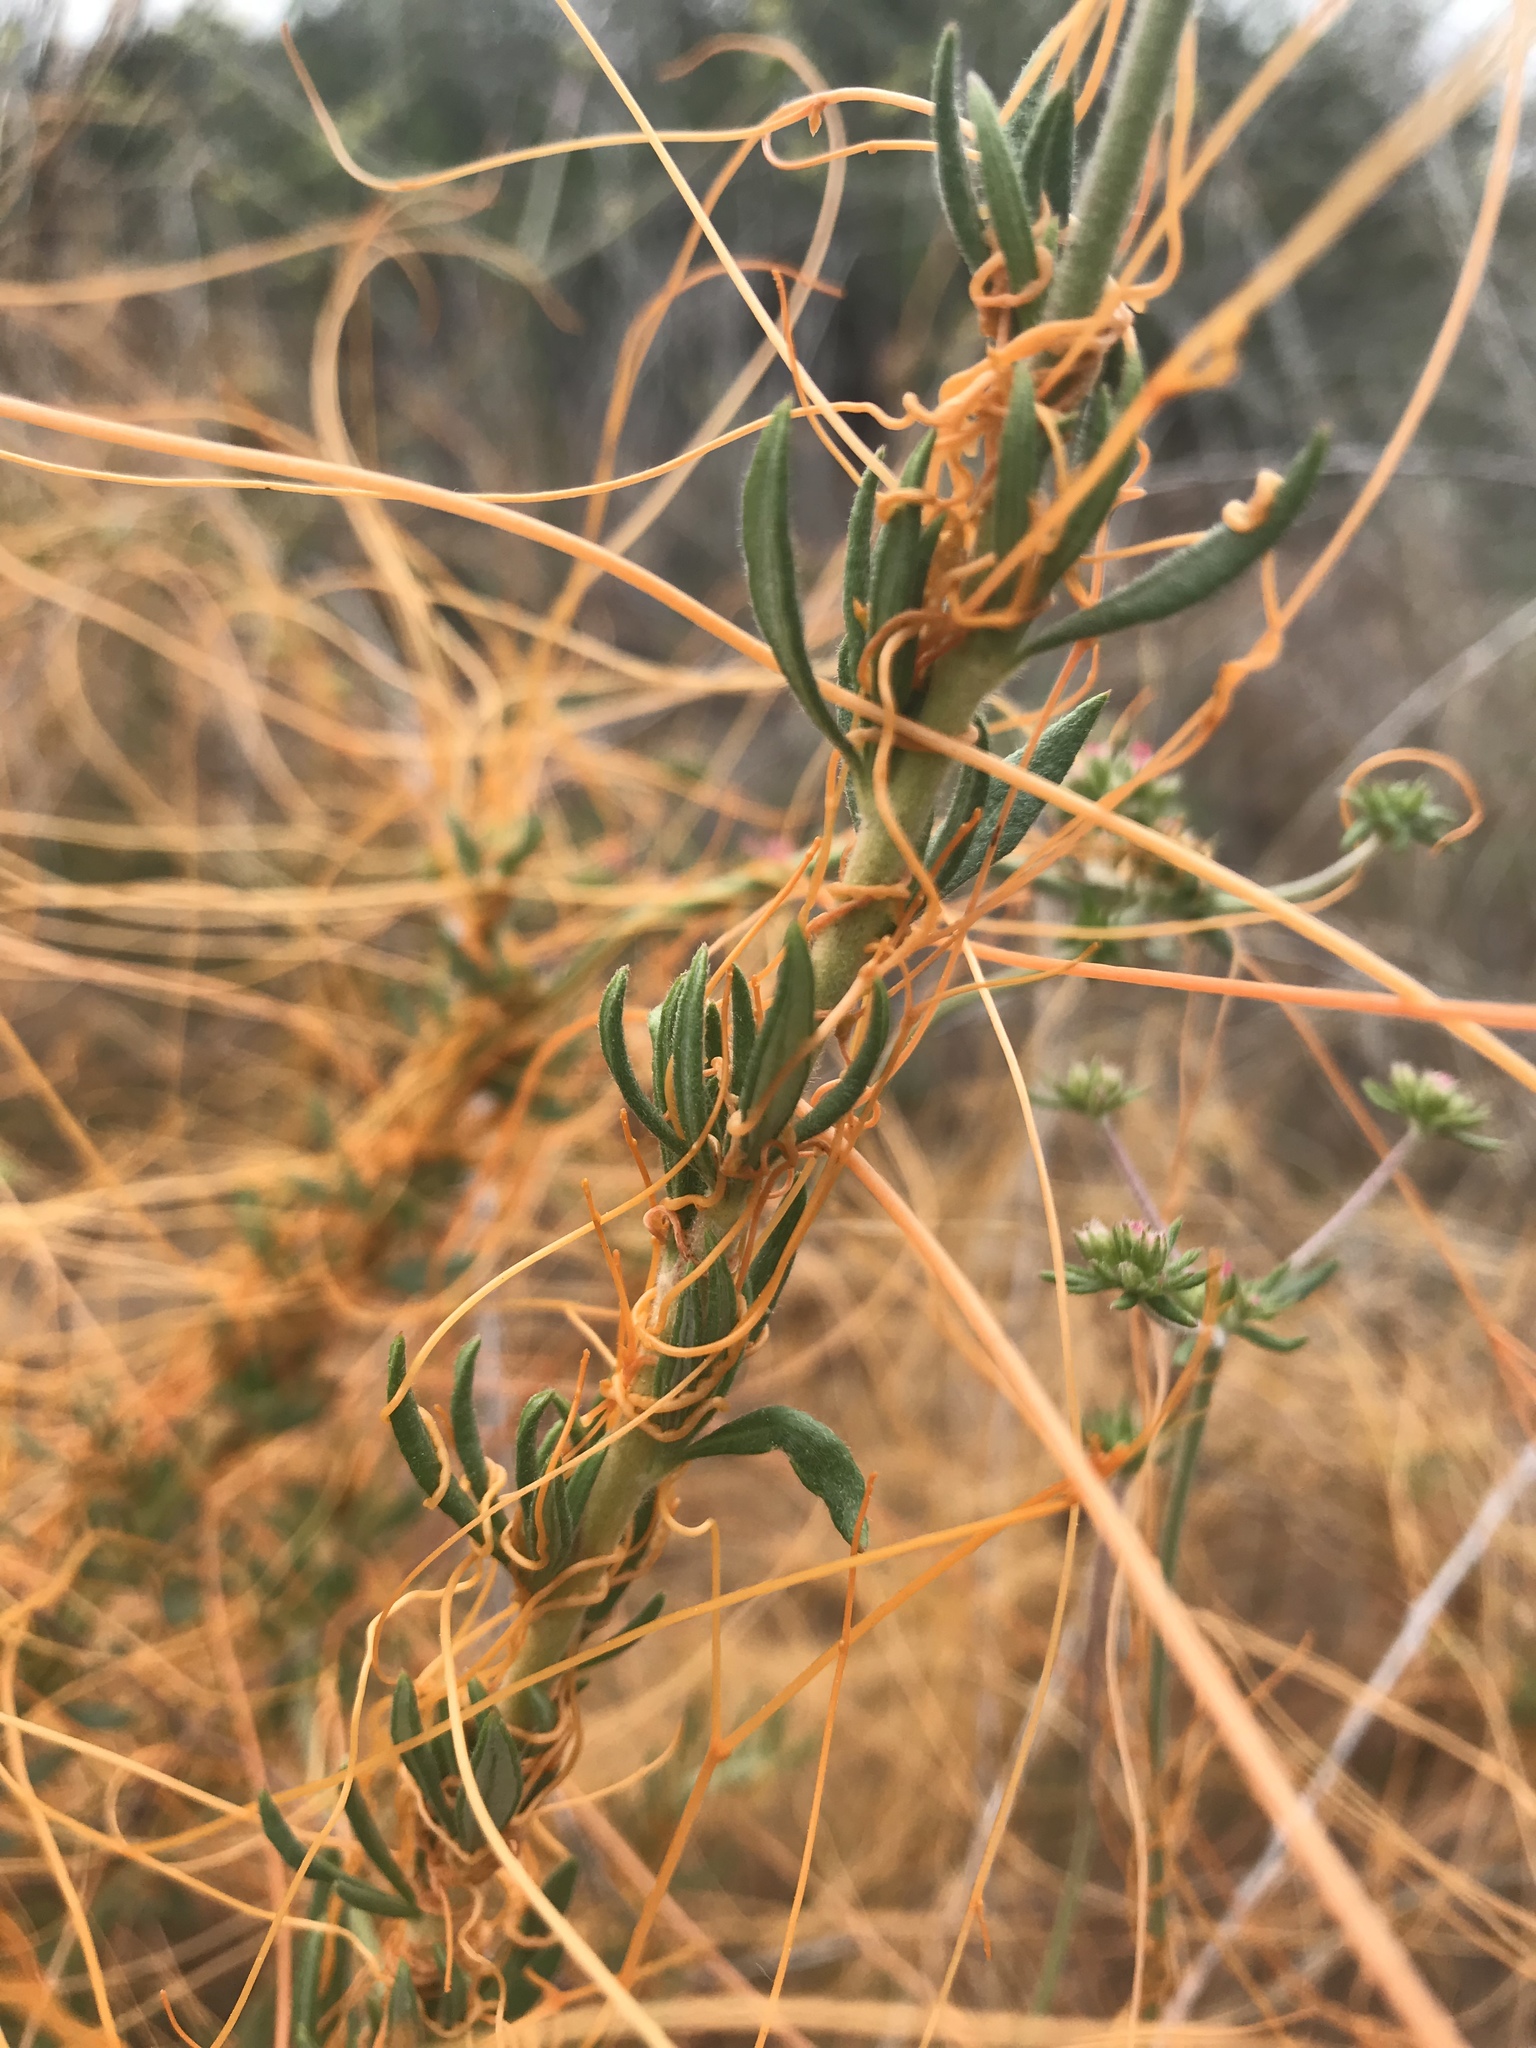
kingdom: Plantae
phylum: Tracheophyta
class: Magnoliopsida
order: Solanales
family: Convolvulaceae
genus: Cuscuta
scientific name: Cuscuta californica
